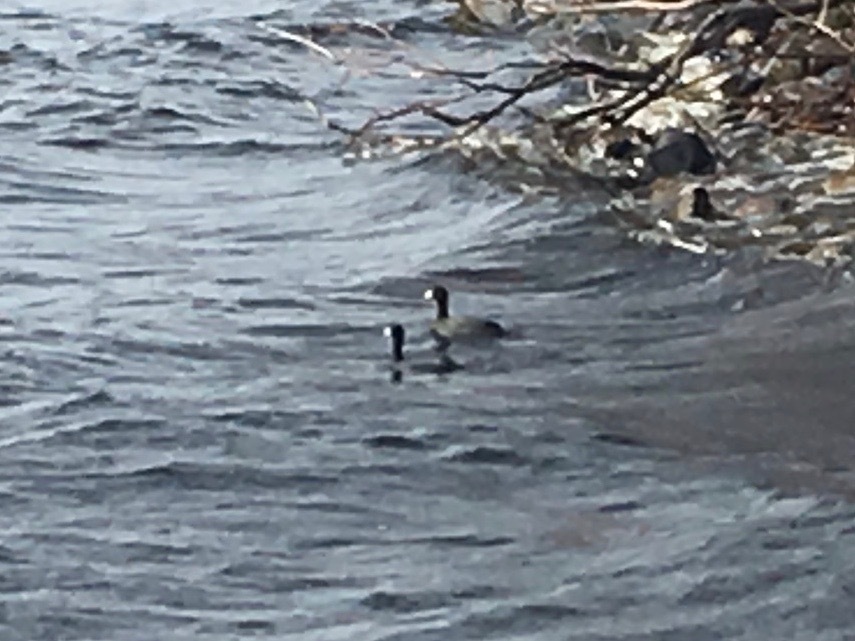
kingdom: Animalia
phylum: Chordata
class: Aves
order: Gruiformes
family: Rallidae
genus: Fulica
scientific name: Fulica americana
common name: American coot
